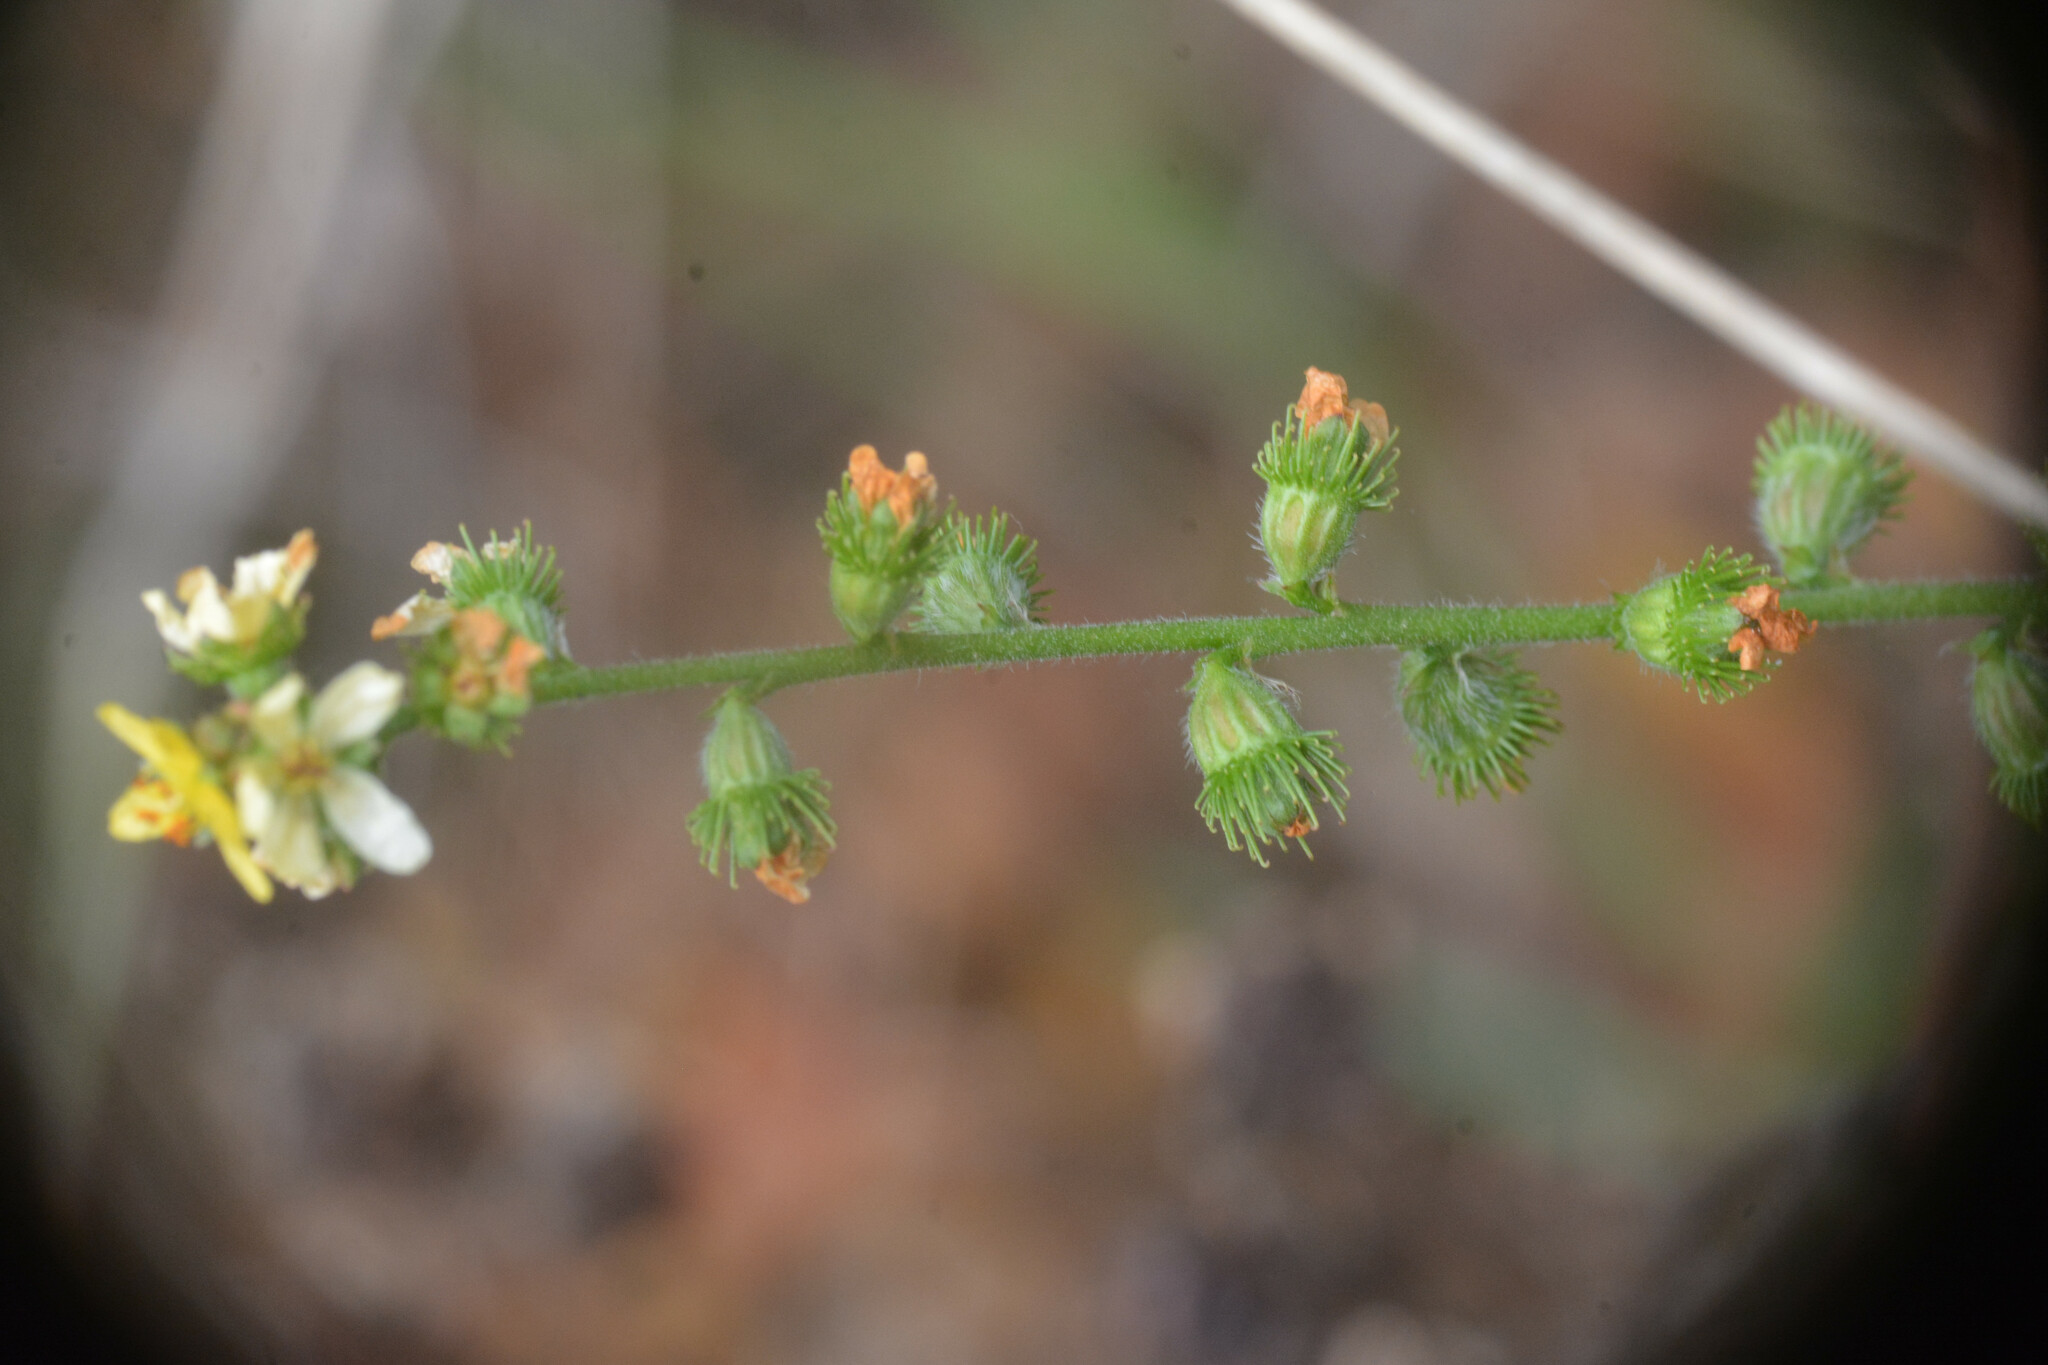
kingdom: Plantae
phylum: Tracheophyta
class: Magnoliopsida
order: Rosales
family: Rosaceae
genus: Agrimonia
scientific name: Agrimonia eupatoria
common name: Agrimony
